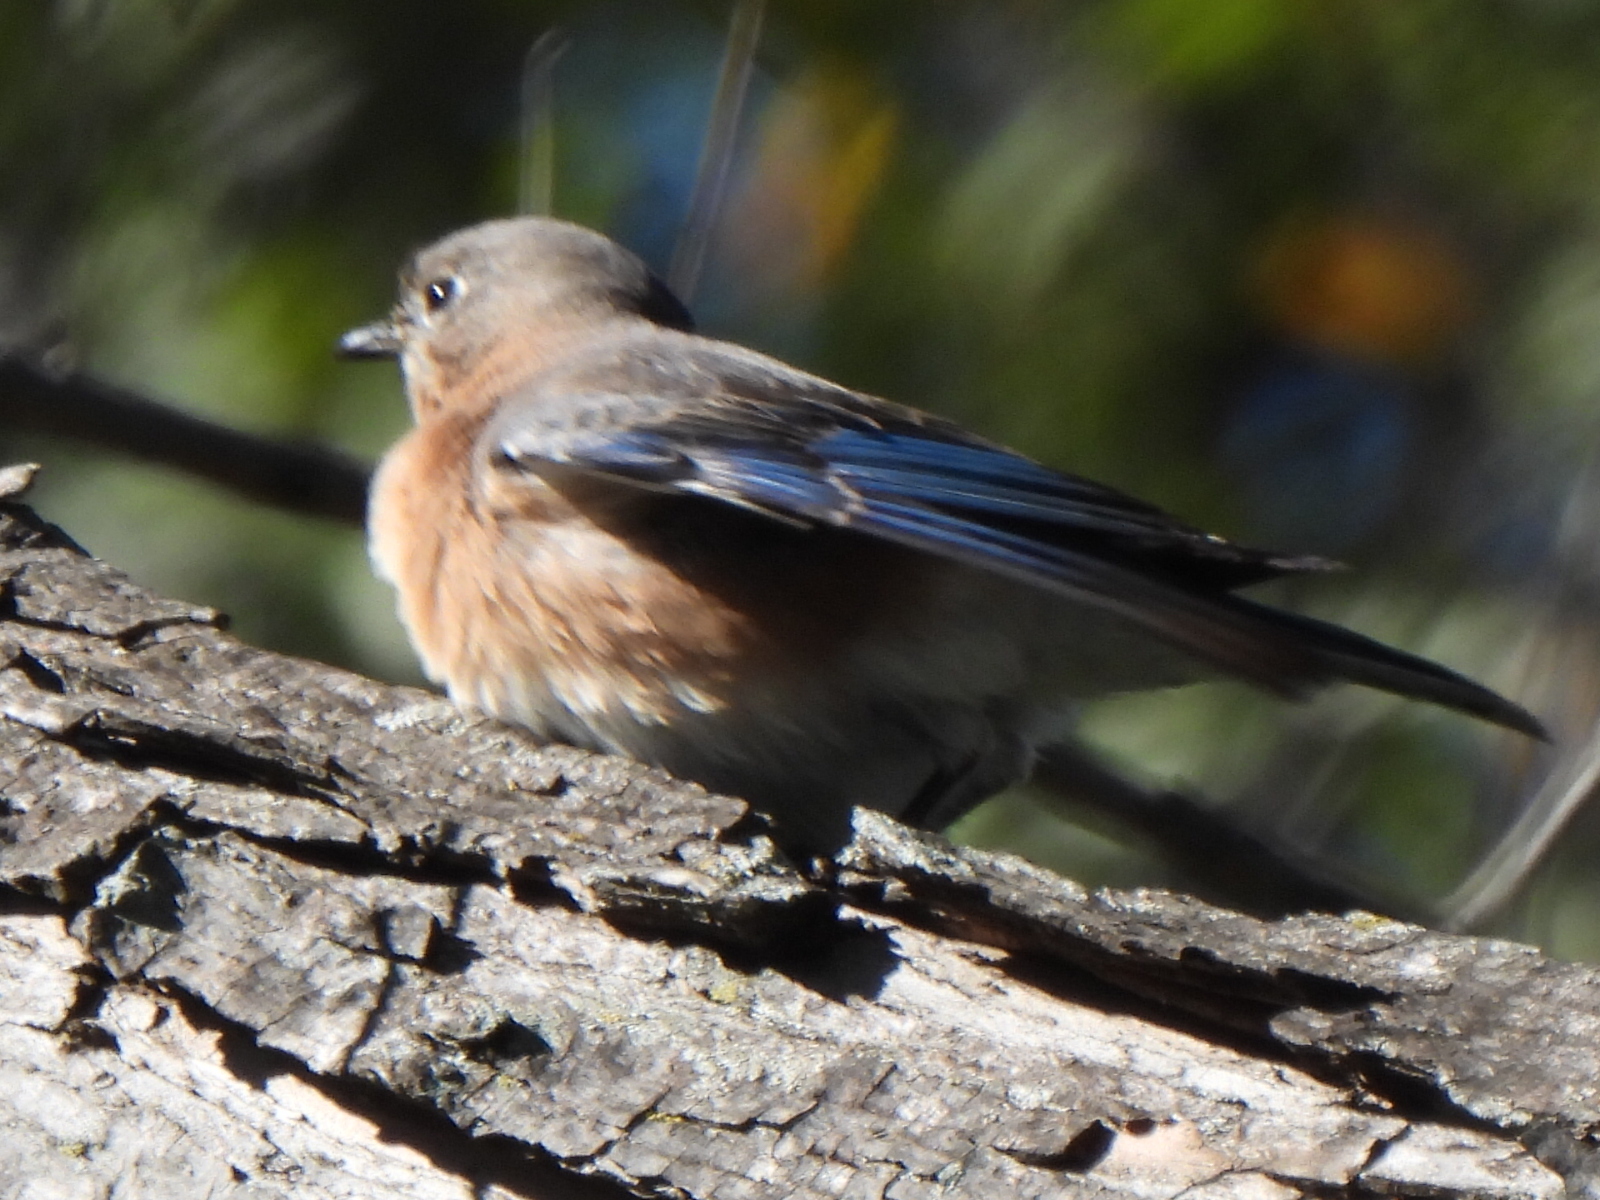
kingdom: Animalia
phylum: Chordata
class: Aves
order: Passeriformes
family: Turdidae
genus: Sialia
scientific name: Sialia sialis
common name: Eastern bluebird
